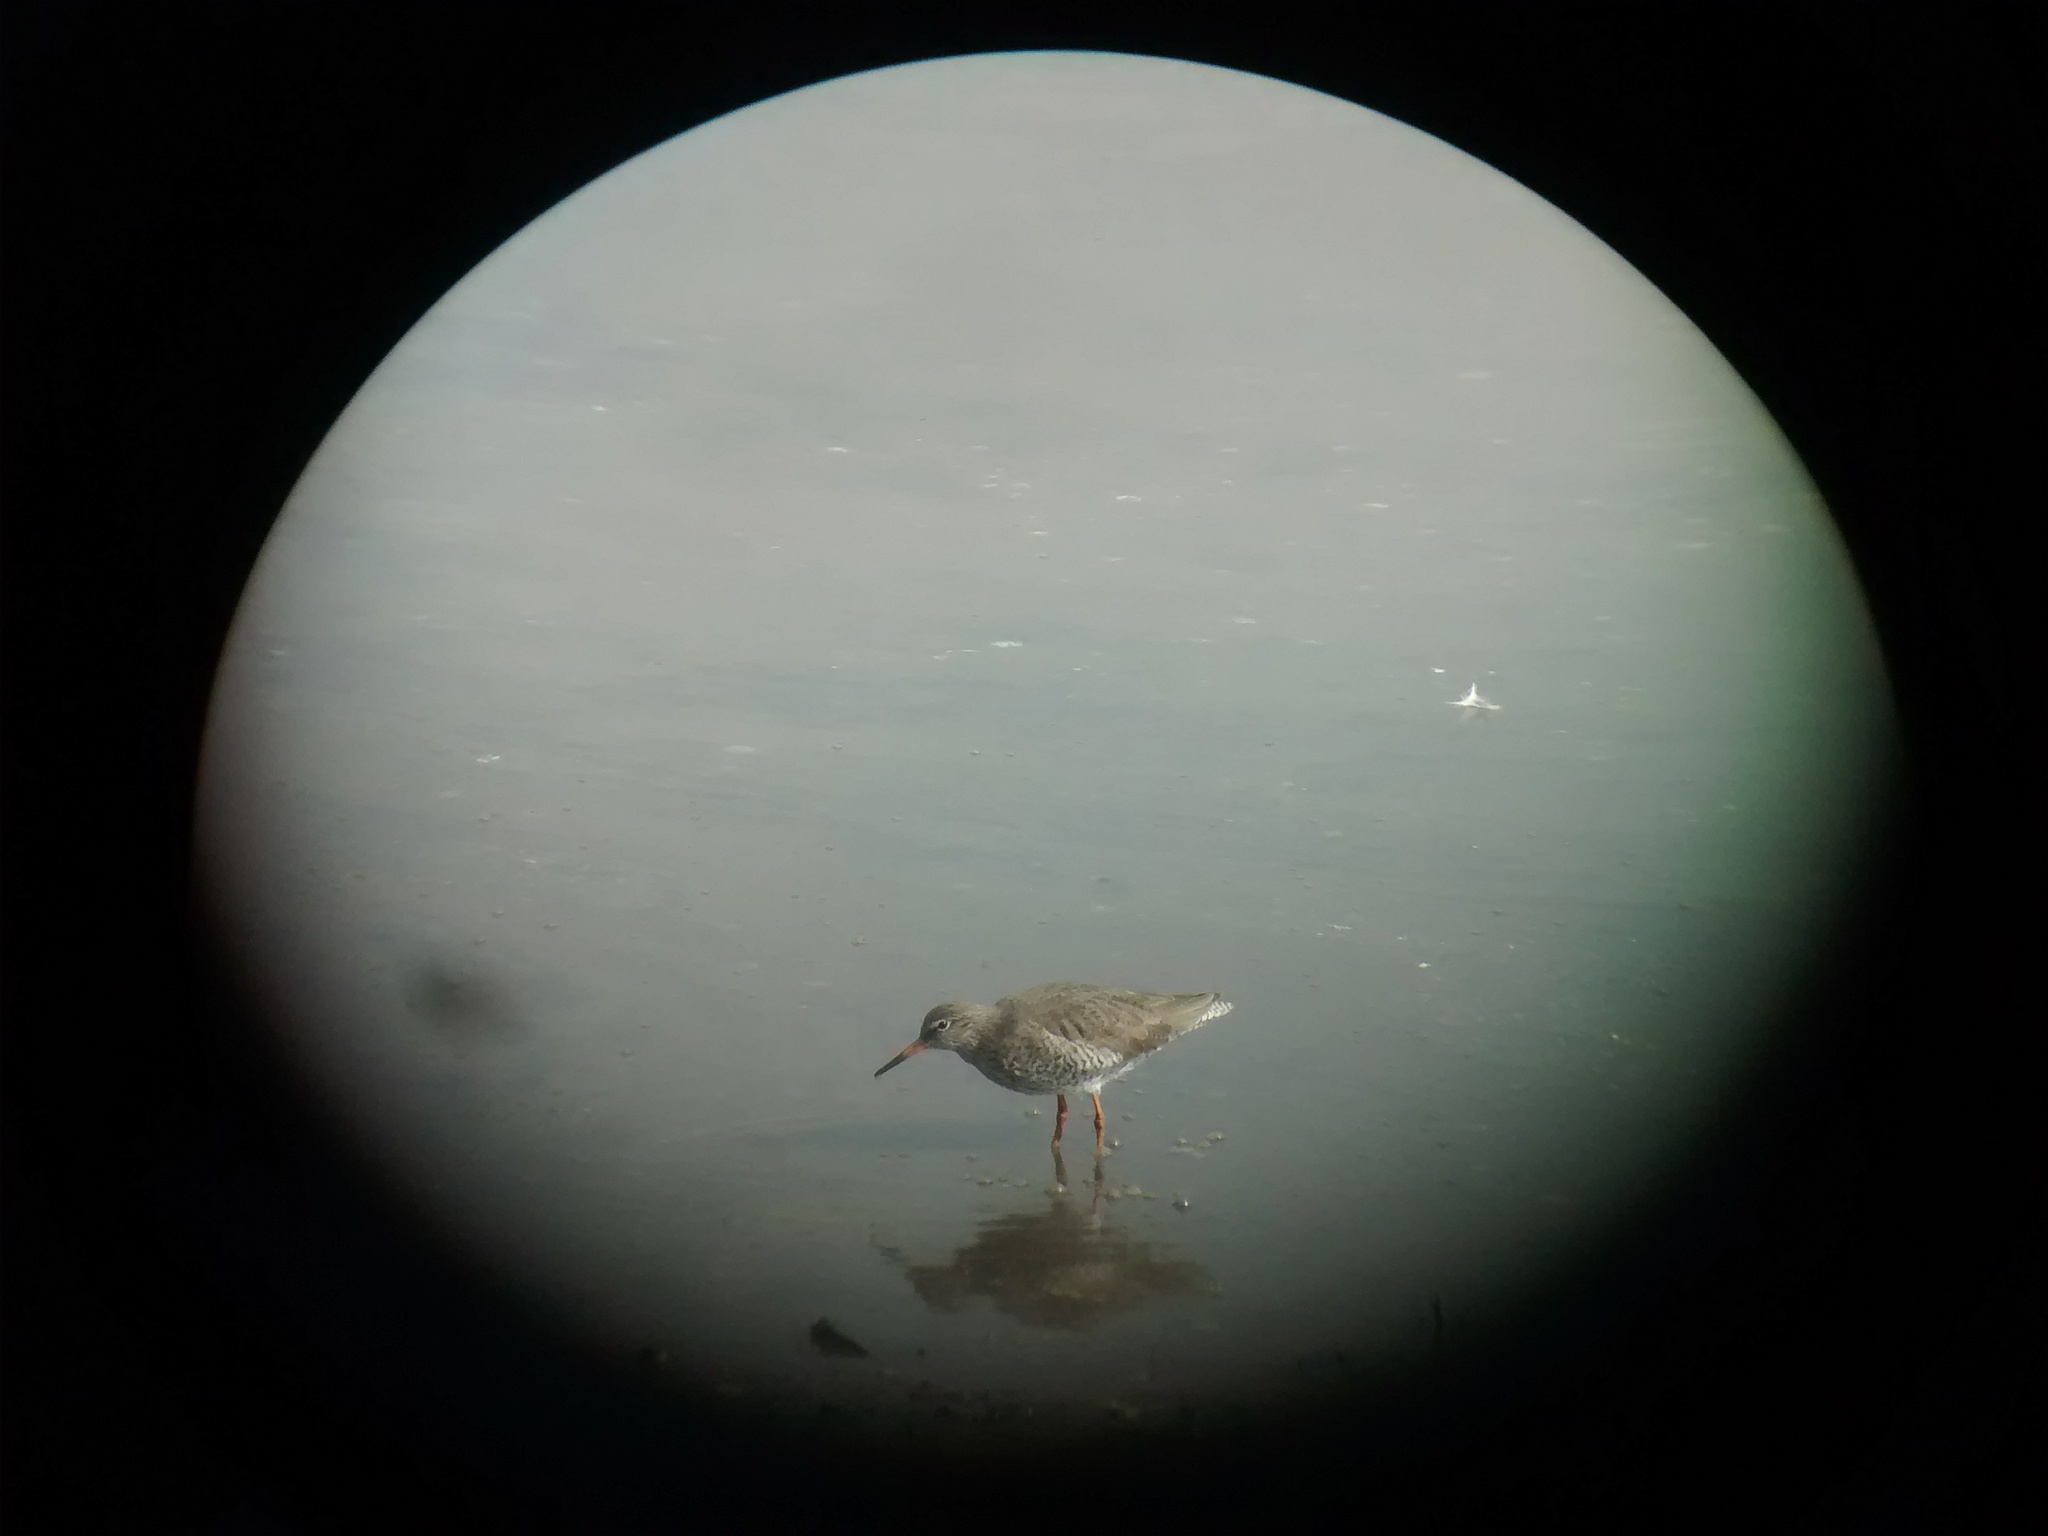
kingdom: Animalia
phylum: Chordata
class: Aves
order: Charadriiformes
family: Scolopacidae
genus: Tringa
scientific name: Tringa totanus
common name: Common redshank
